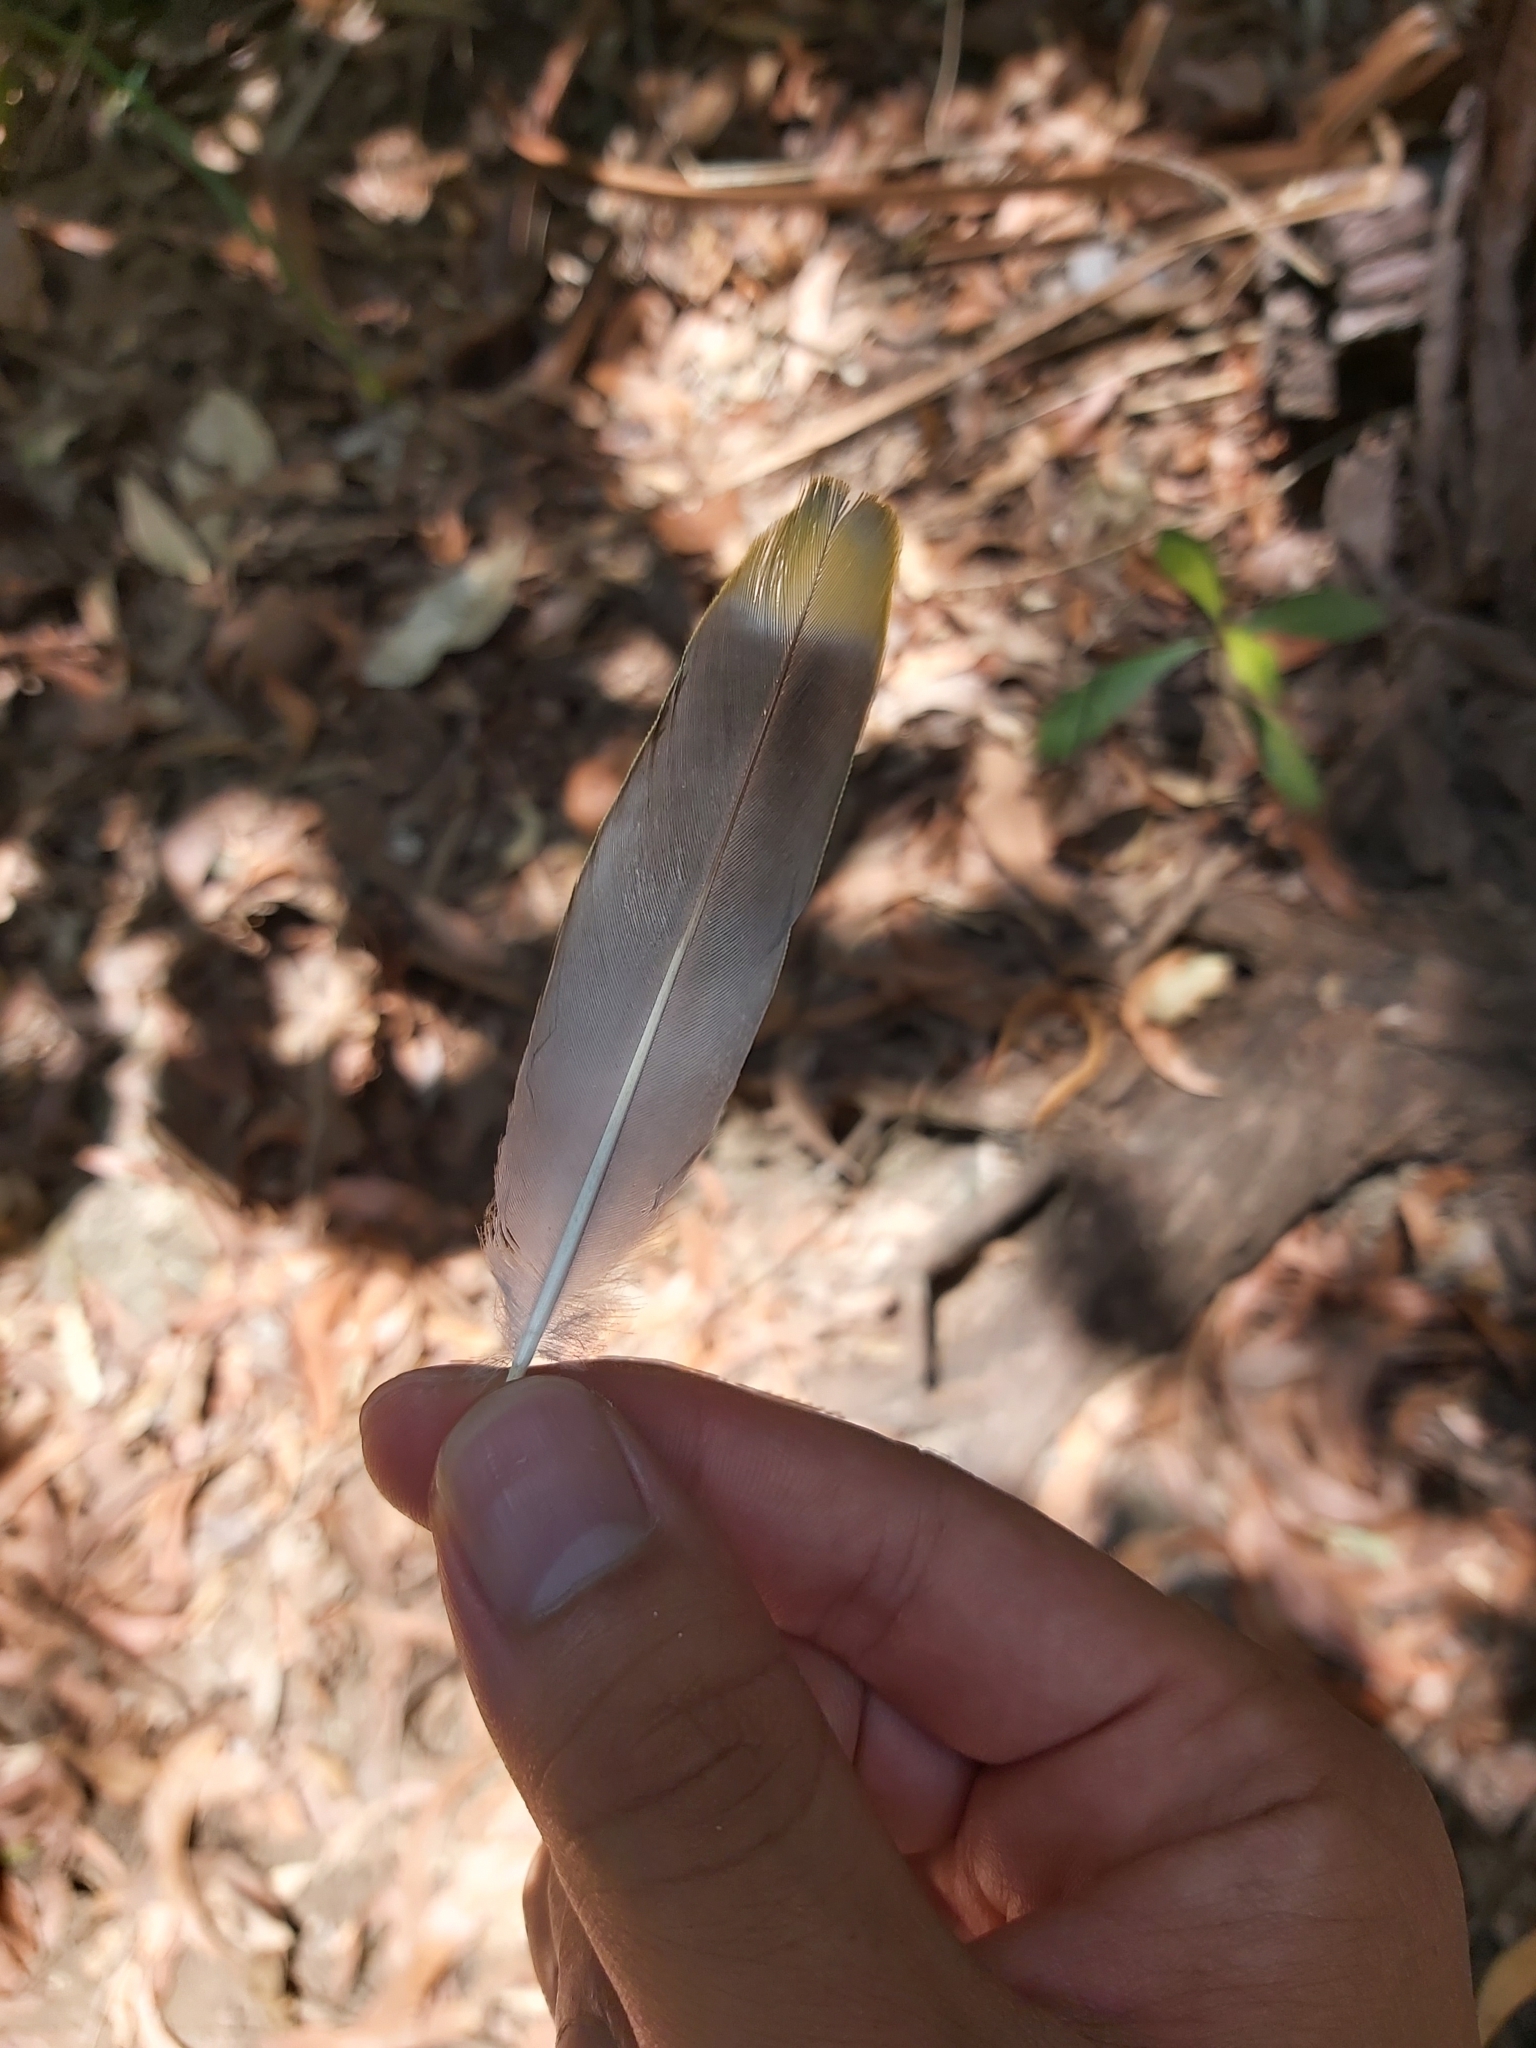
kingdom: Animalia
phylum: Chordata
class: Aves
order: Columbiformes
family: Columbidae
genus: Ptilinopus
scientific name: Ptilinopus regina
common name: Rose-crowned fruit dove
